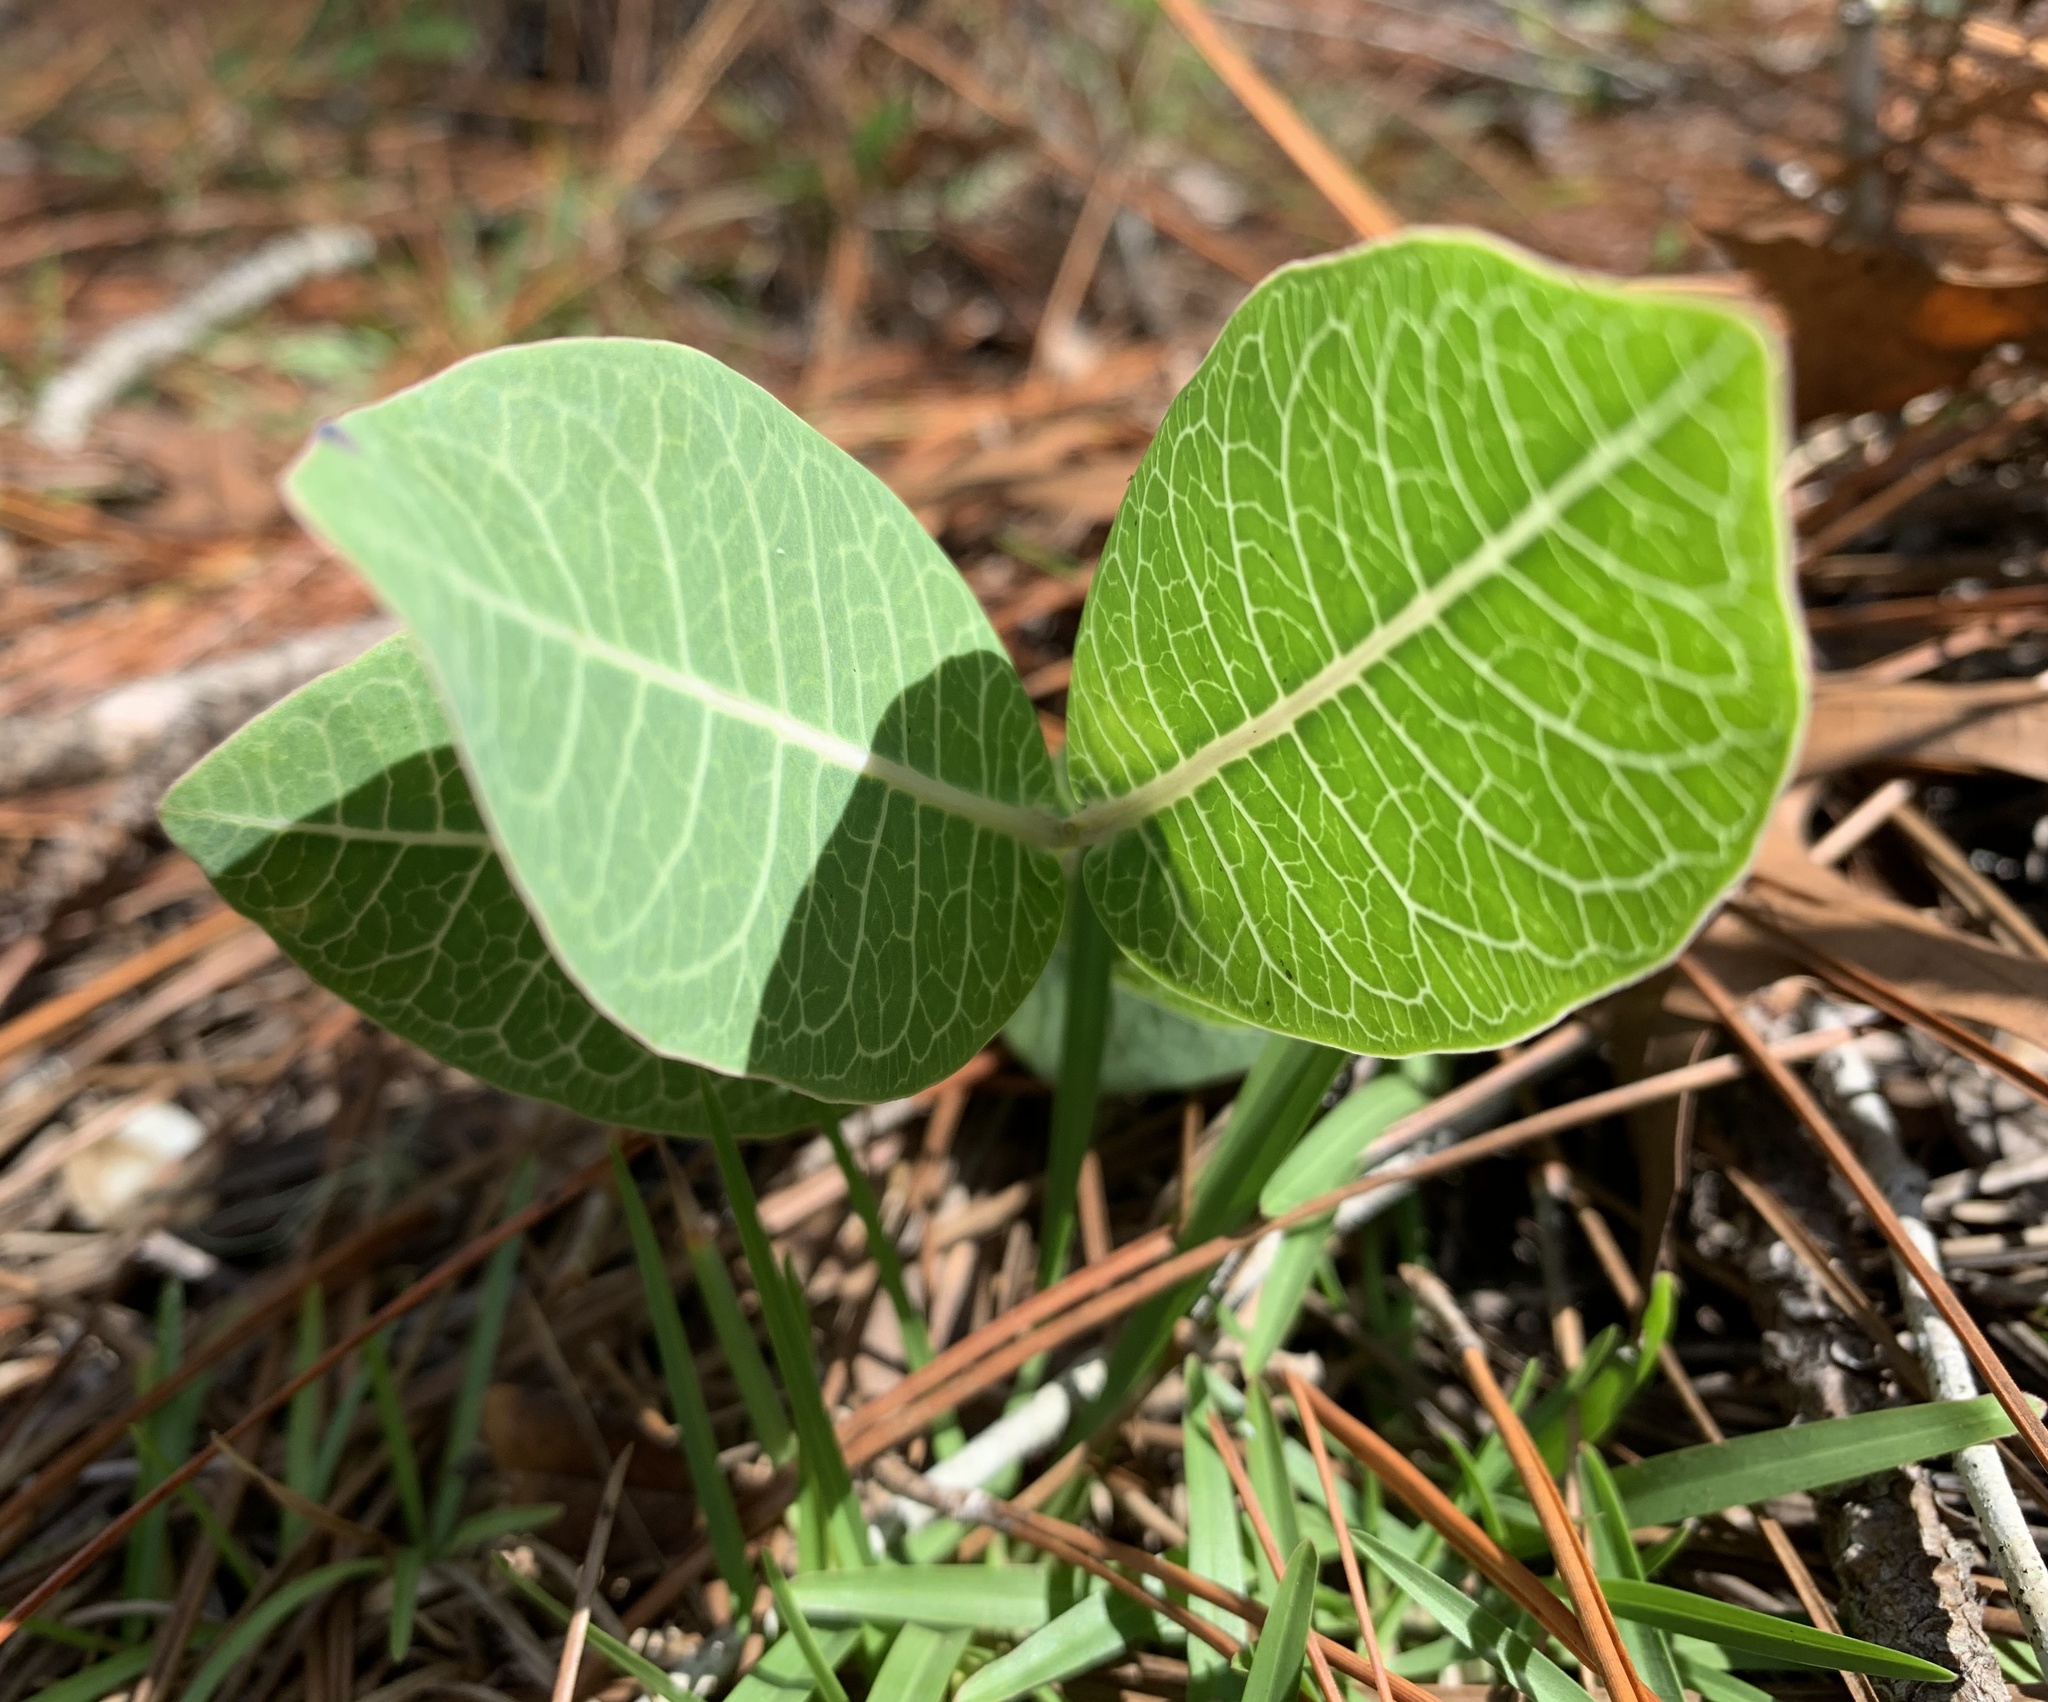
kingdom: Plantae
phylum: Tracheophyta
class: Magnoliopsida
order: Gentianales
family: Apocynaceae
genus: Asclepias
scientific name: Asclepias humistrata
